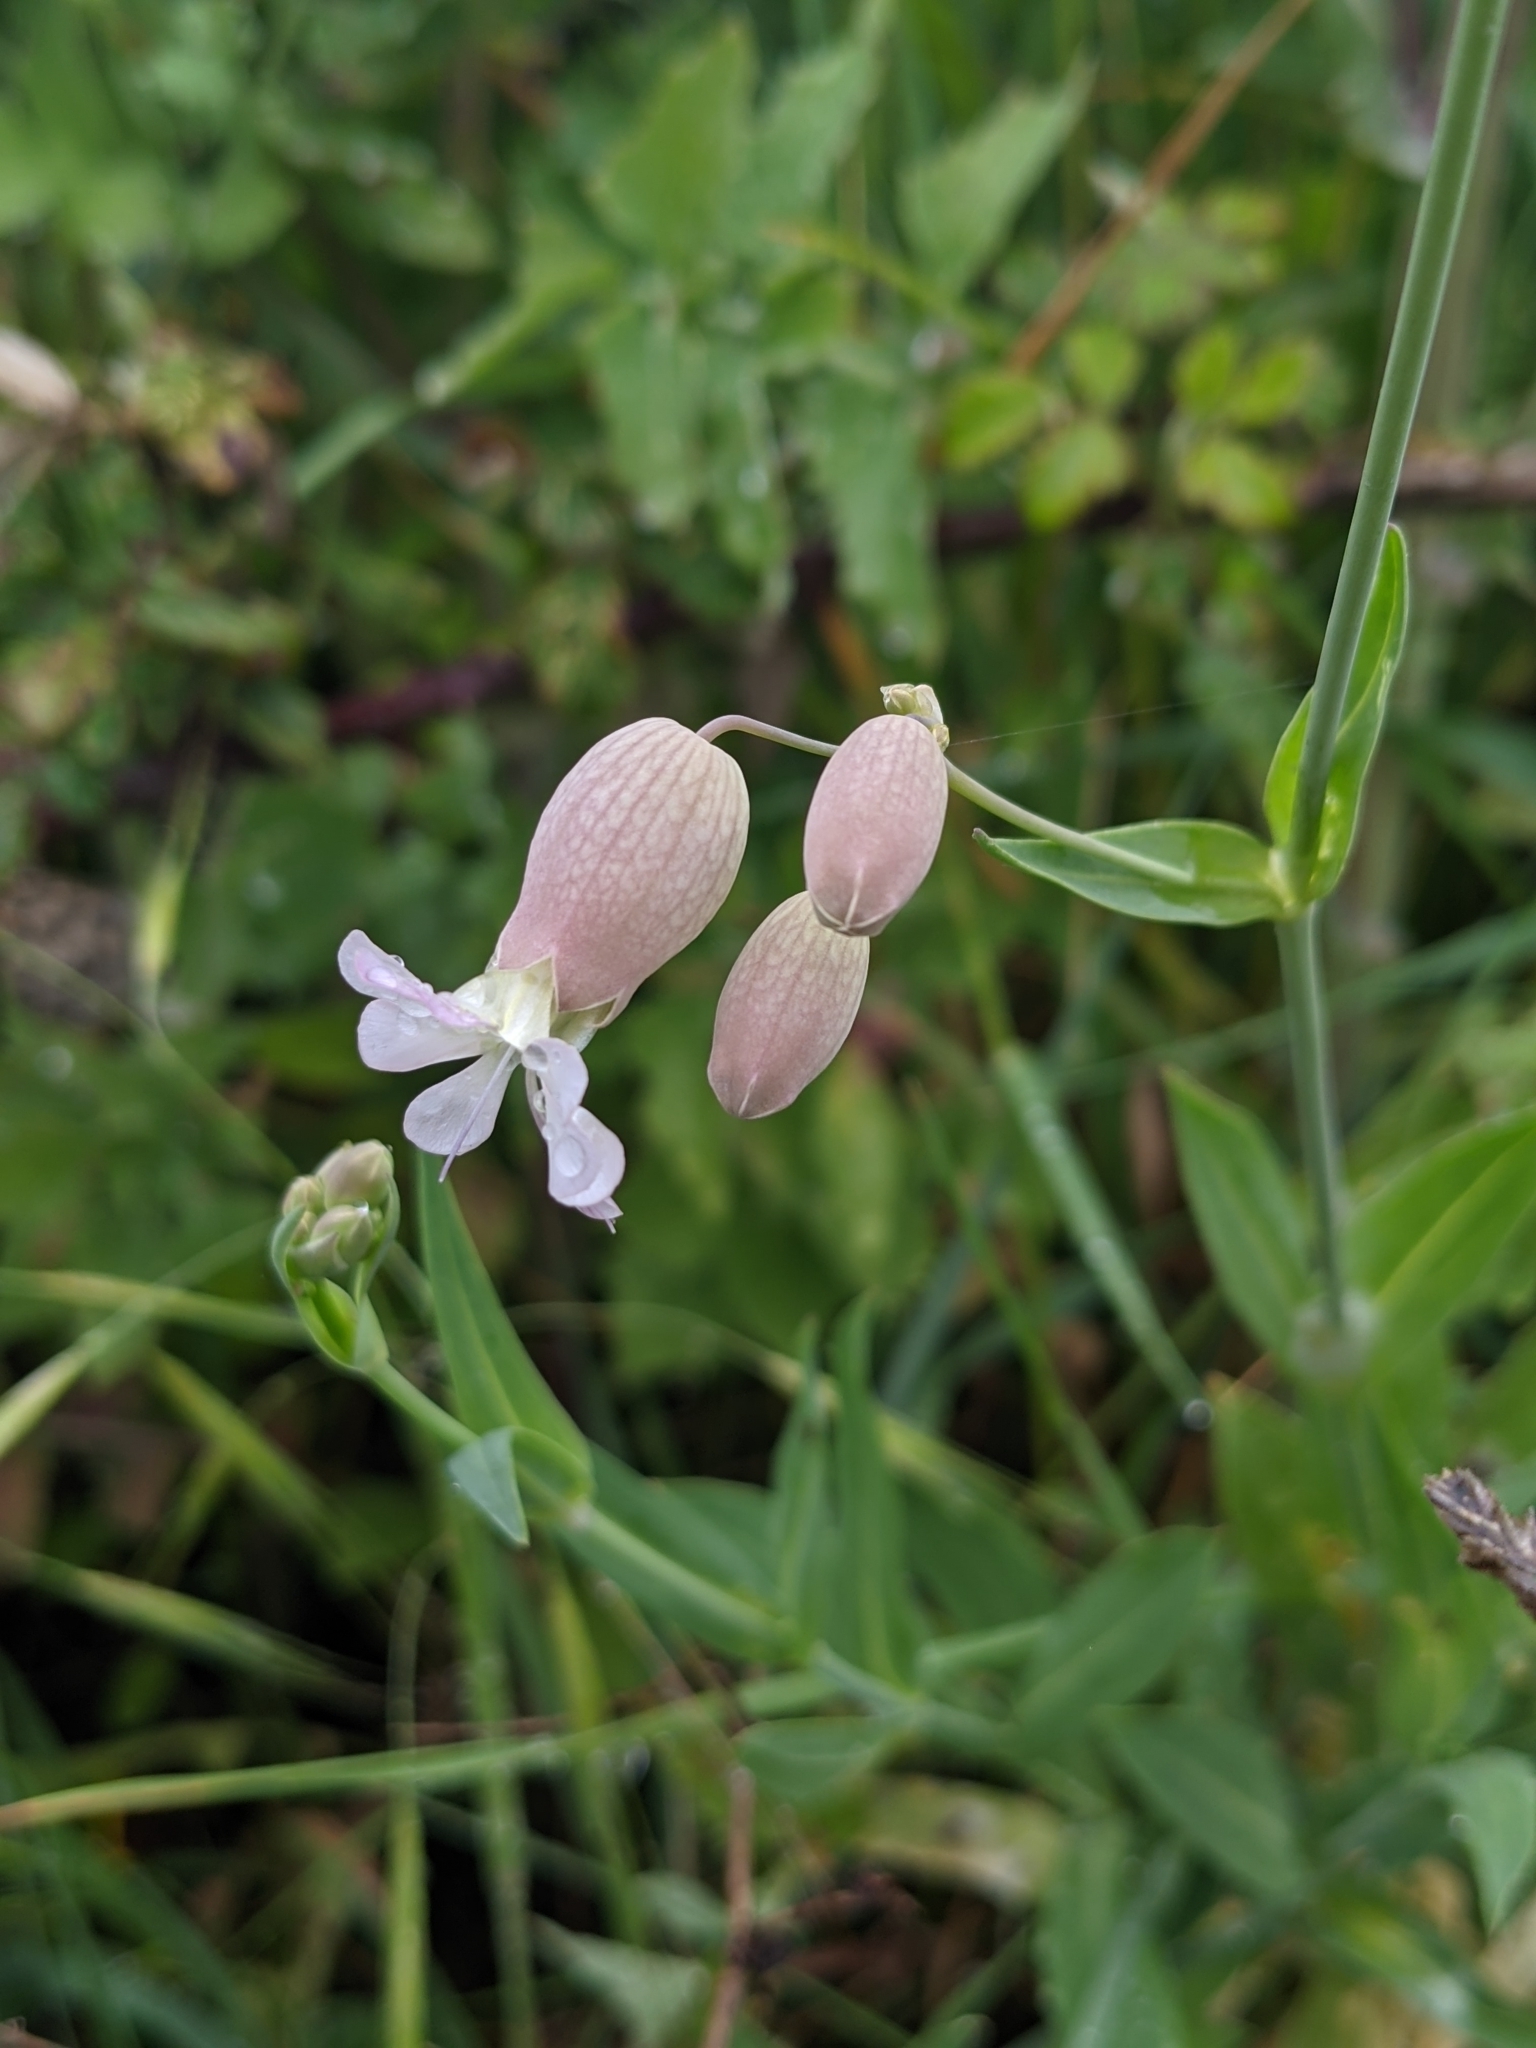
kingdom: Plantae
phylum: Tracheophyta
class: Magnoliopsida
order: Caryophyllales
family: Caryophyllaceae
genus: Silene
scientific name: Silene vulgaris
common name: Bladder campion
